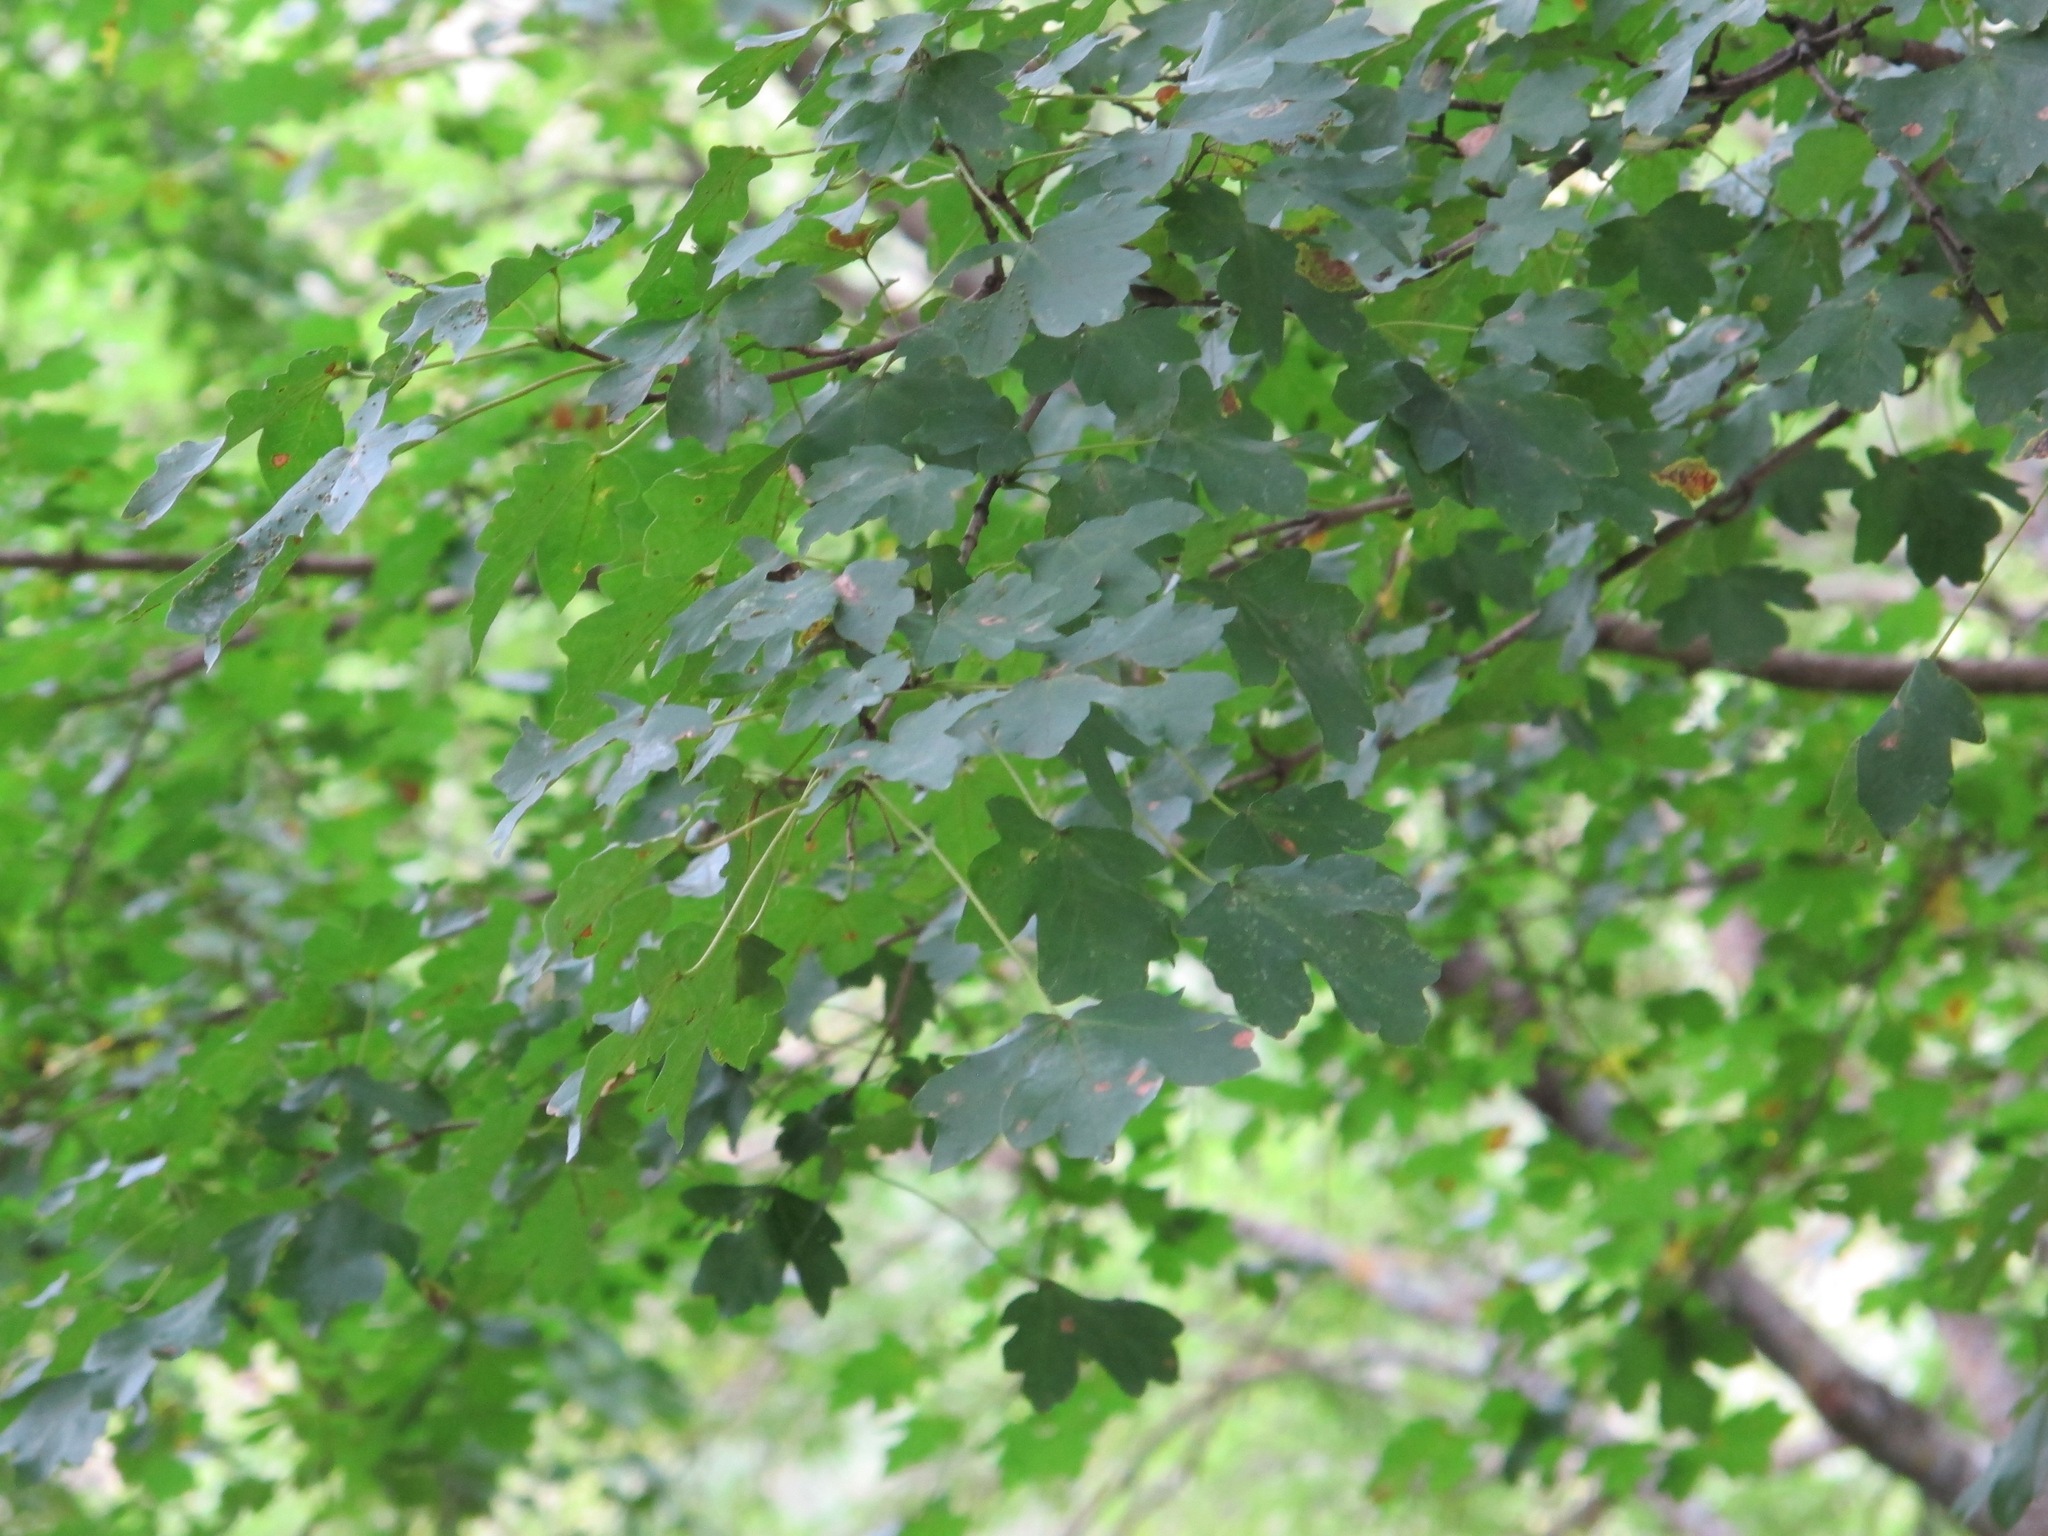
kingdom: Plantae
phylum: Tracheophyta
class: Magnoliopsida
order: Sapindales
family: Sapindaceae
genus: Acer
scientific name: Acer campestre
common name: Field maple
